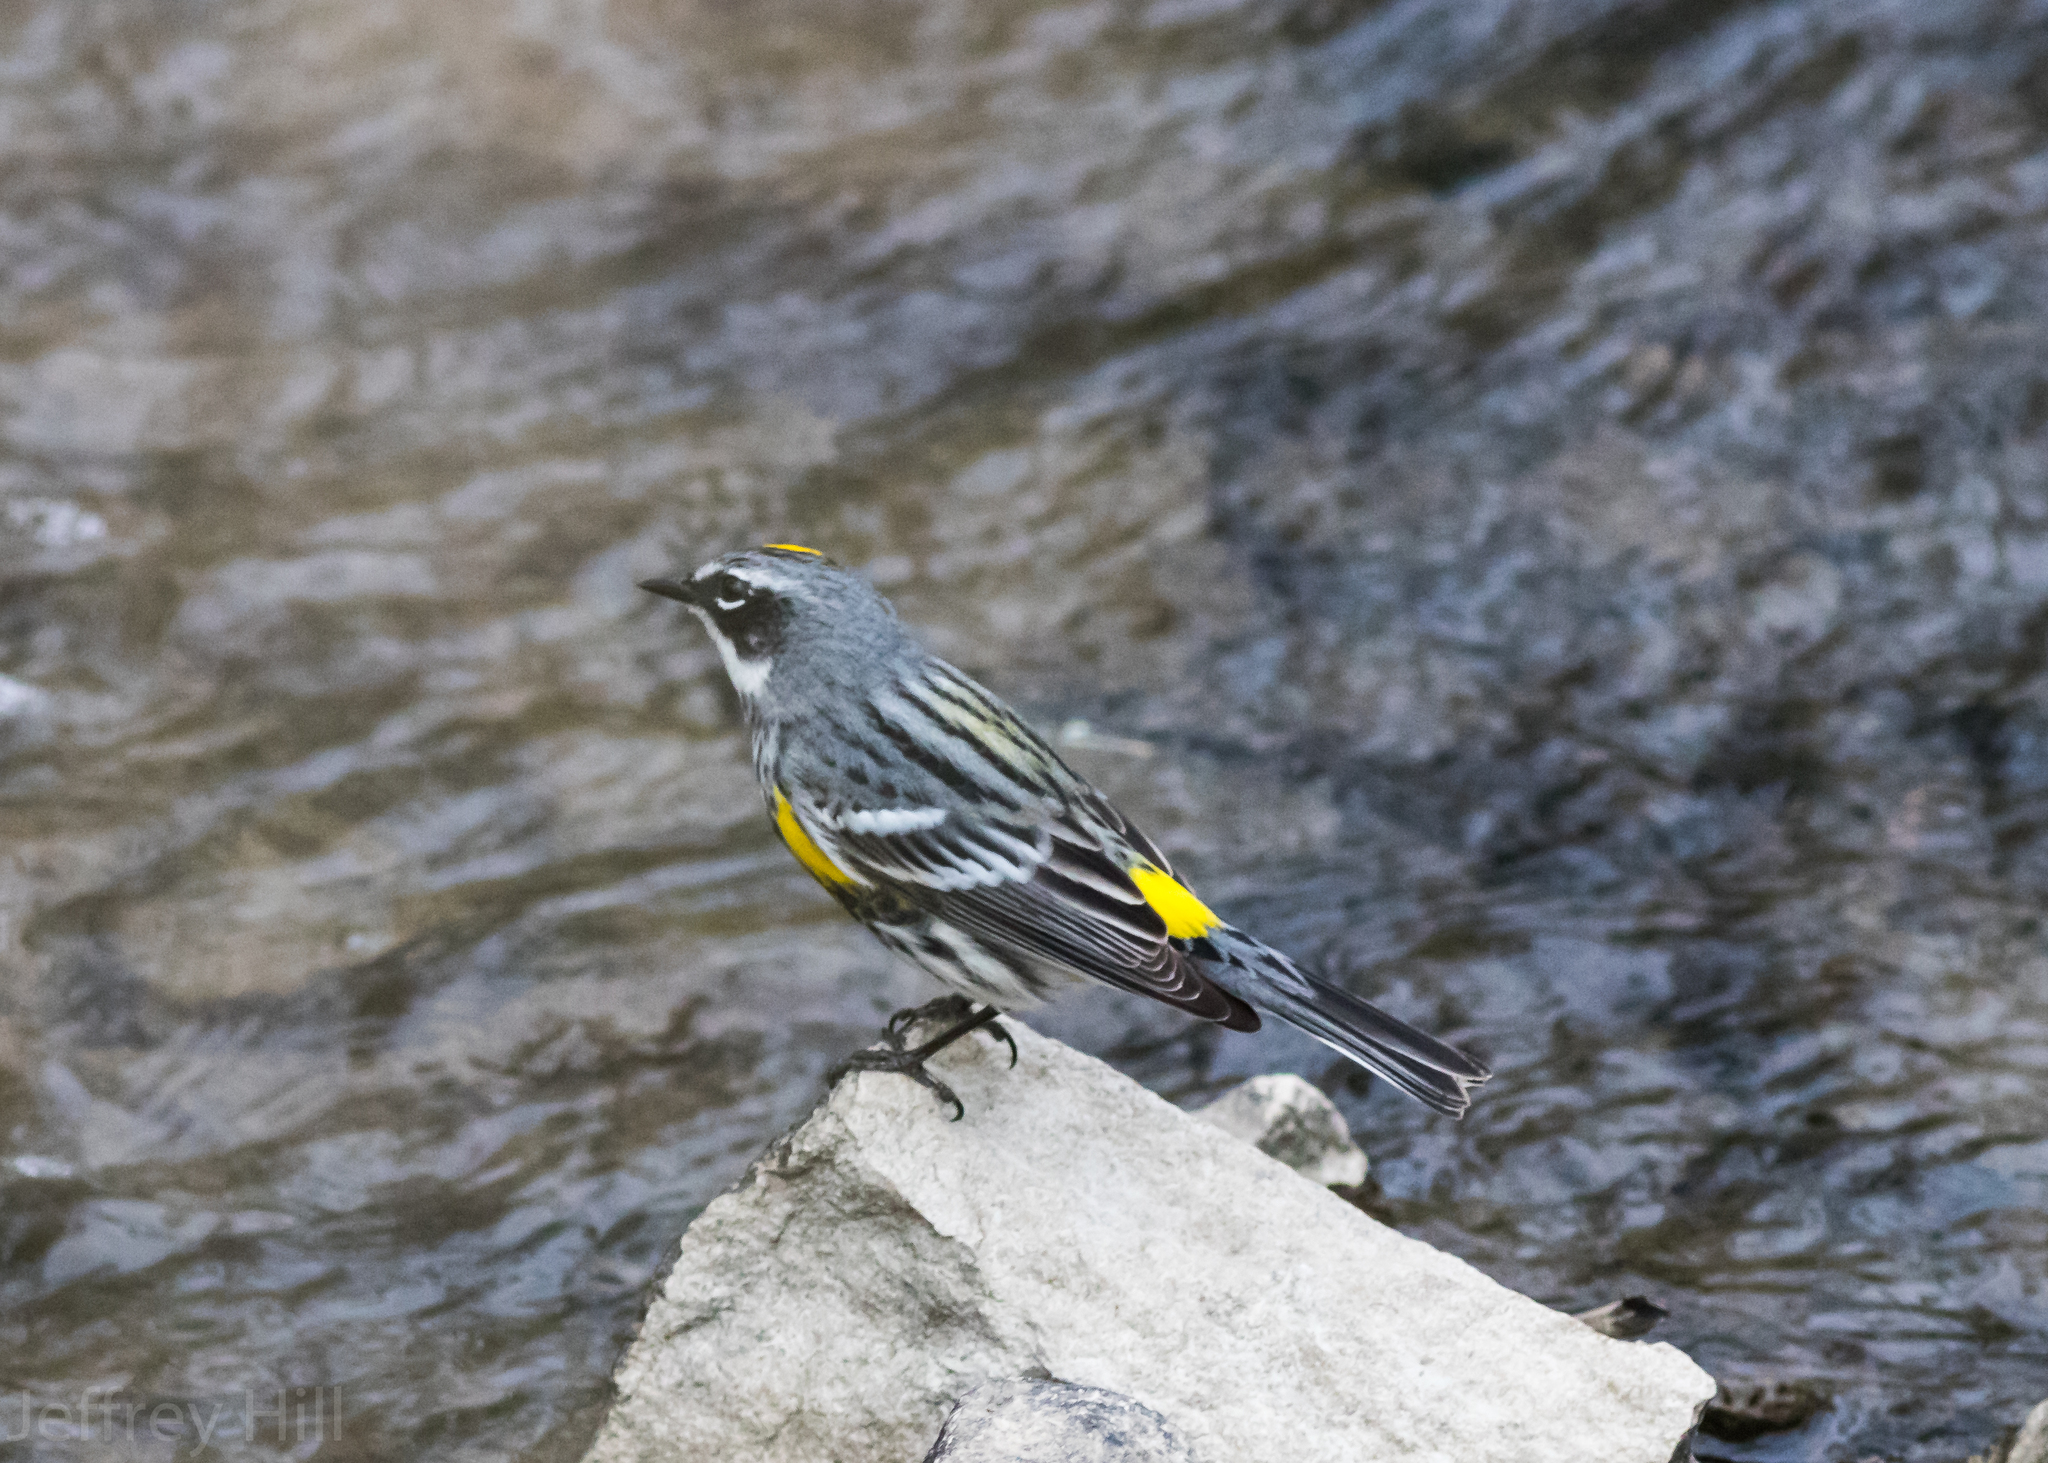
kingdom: Animalia
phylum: Chordata
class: Aves
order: Passeriformes
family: Parulidae
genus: Setophaga
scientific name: Setophaga coronata
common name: Myrtle warbler
